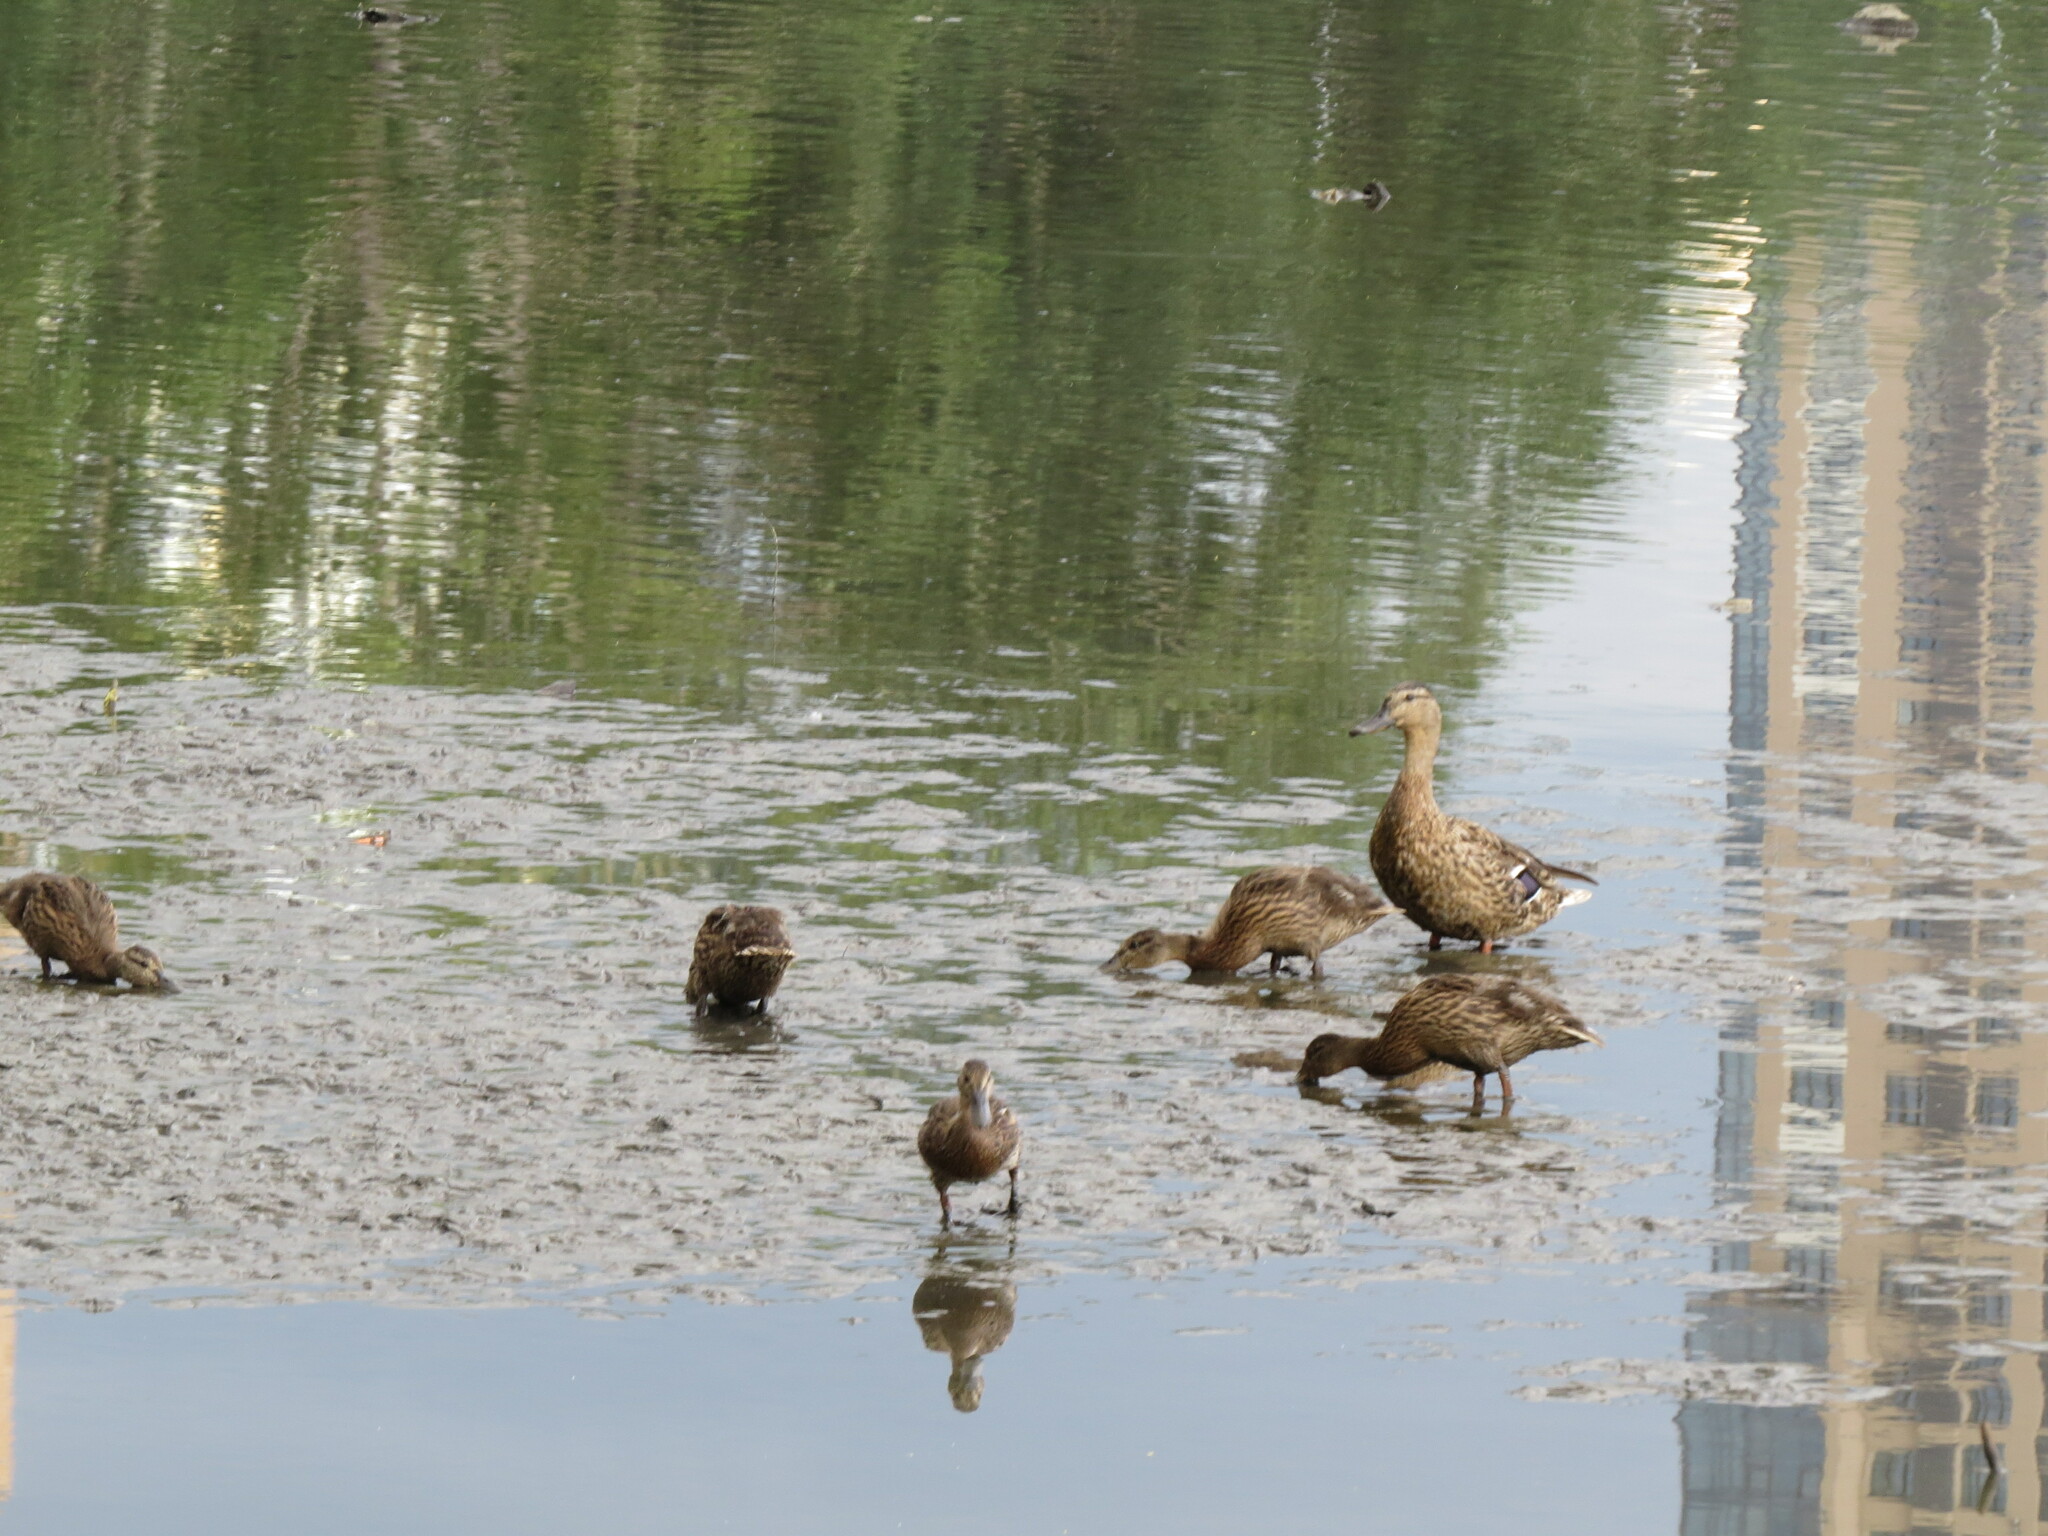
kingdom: Animalia
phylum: Chordata
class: Aves
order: Anseriformes
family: Anatidae
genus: Anas
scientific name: Anas platyrhynchos
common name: Mallard
